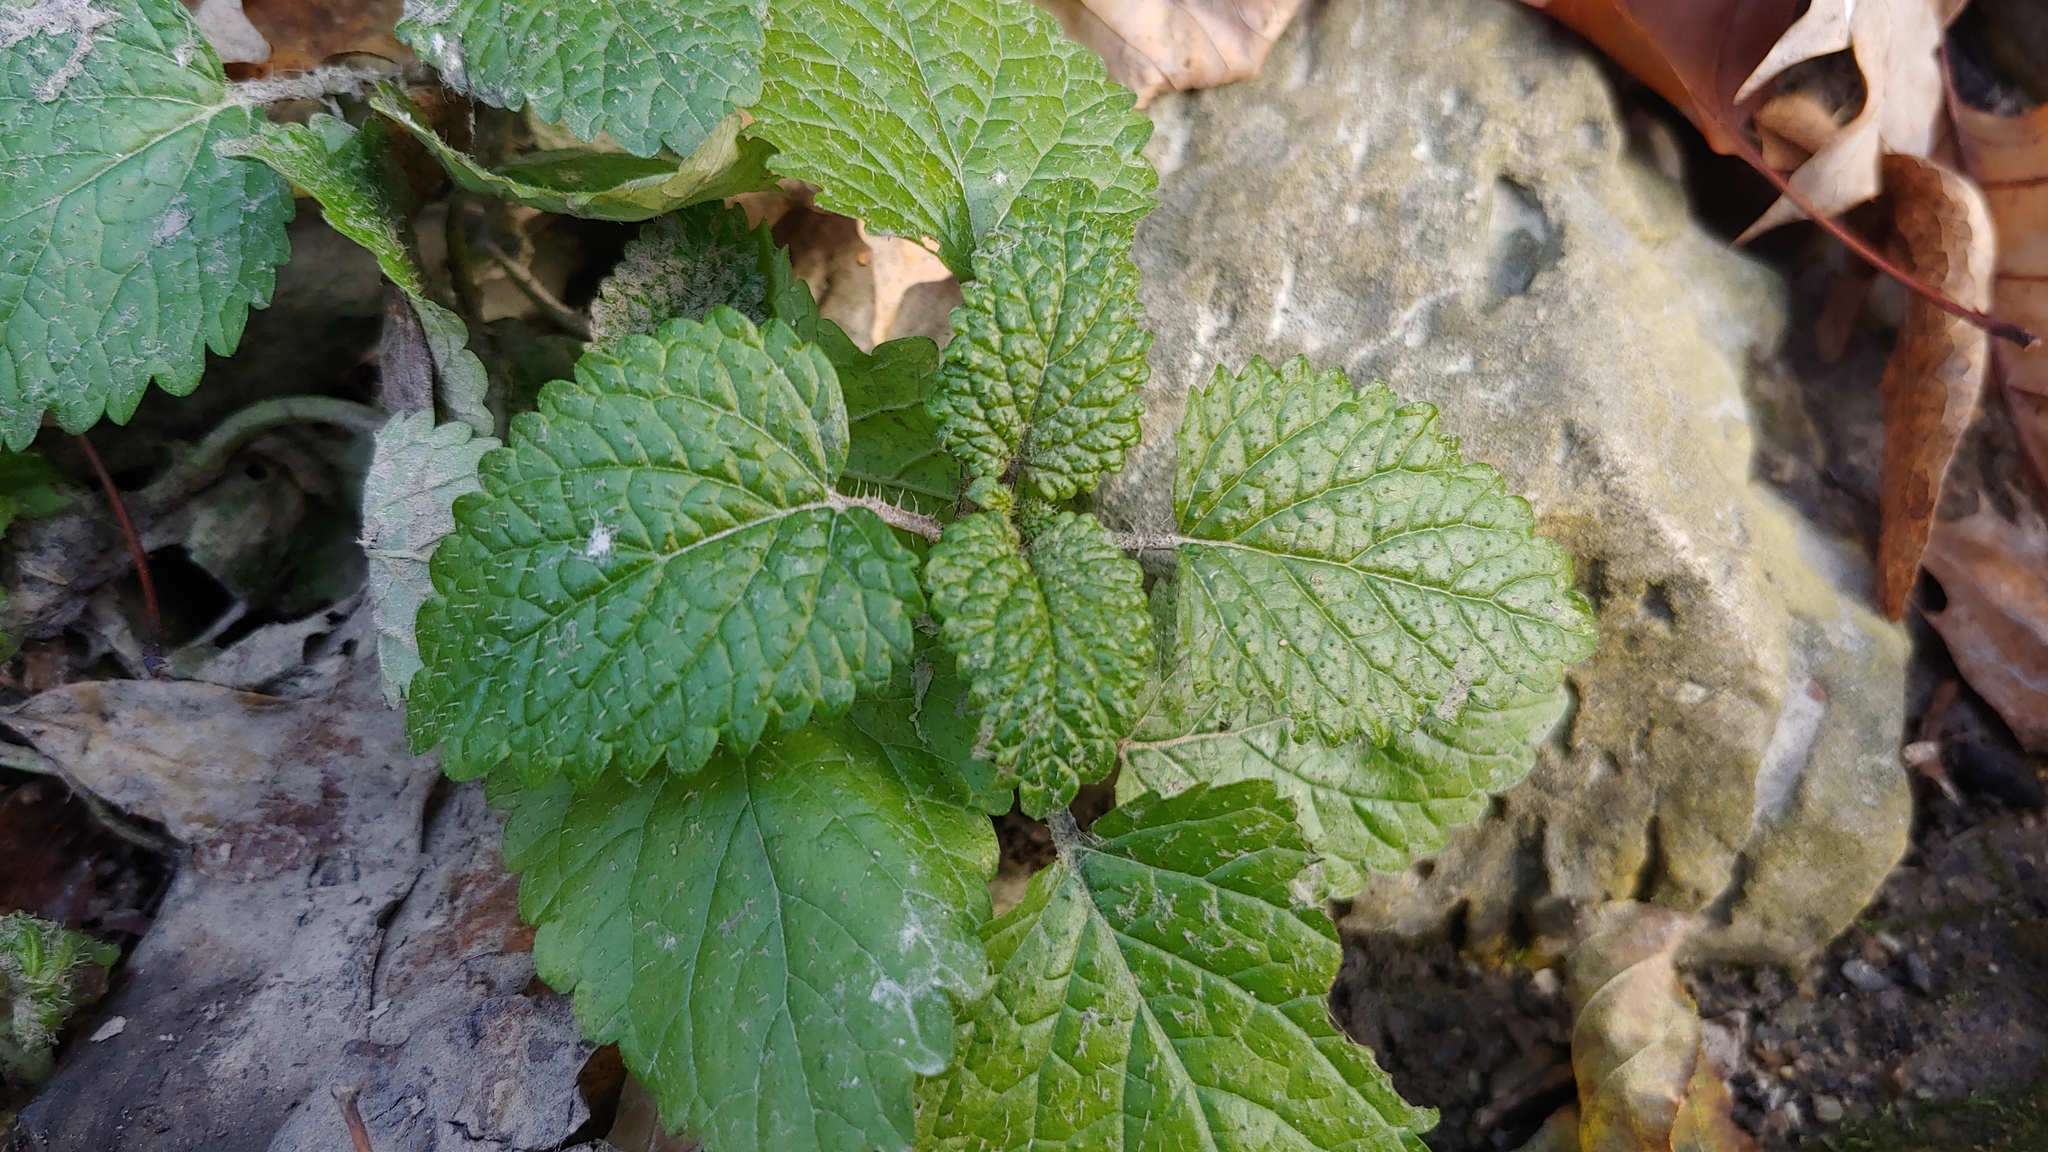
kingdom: Plantae
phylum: Tracheophyta
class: Magnoliopsida
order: Lamiales
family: Lamiaceae
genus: Melissa
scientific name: Melissa officinalis
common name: Balm
